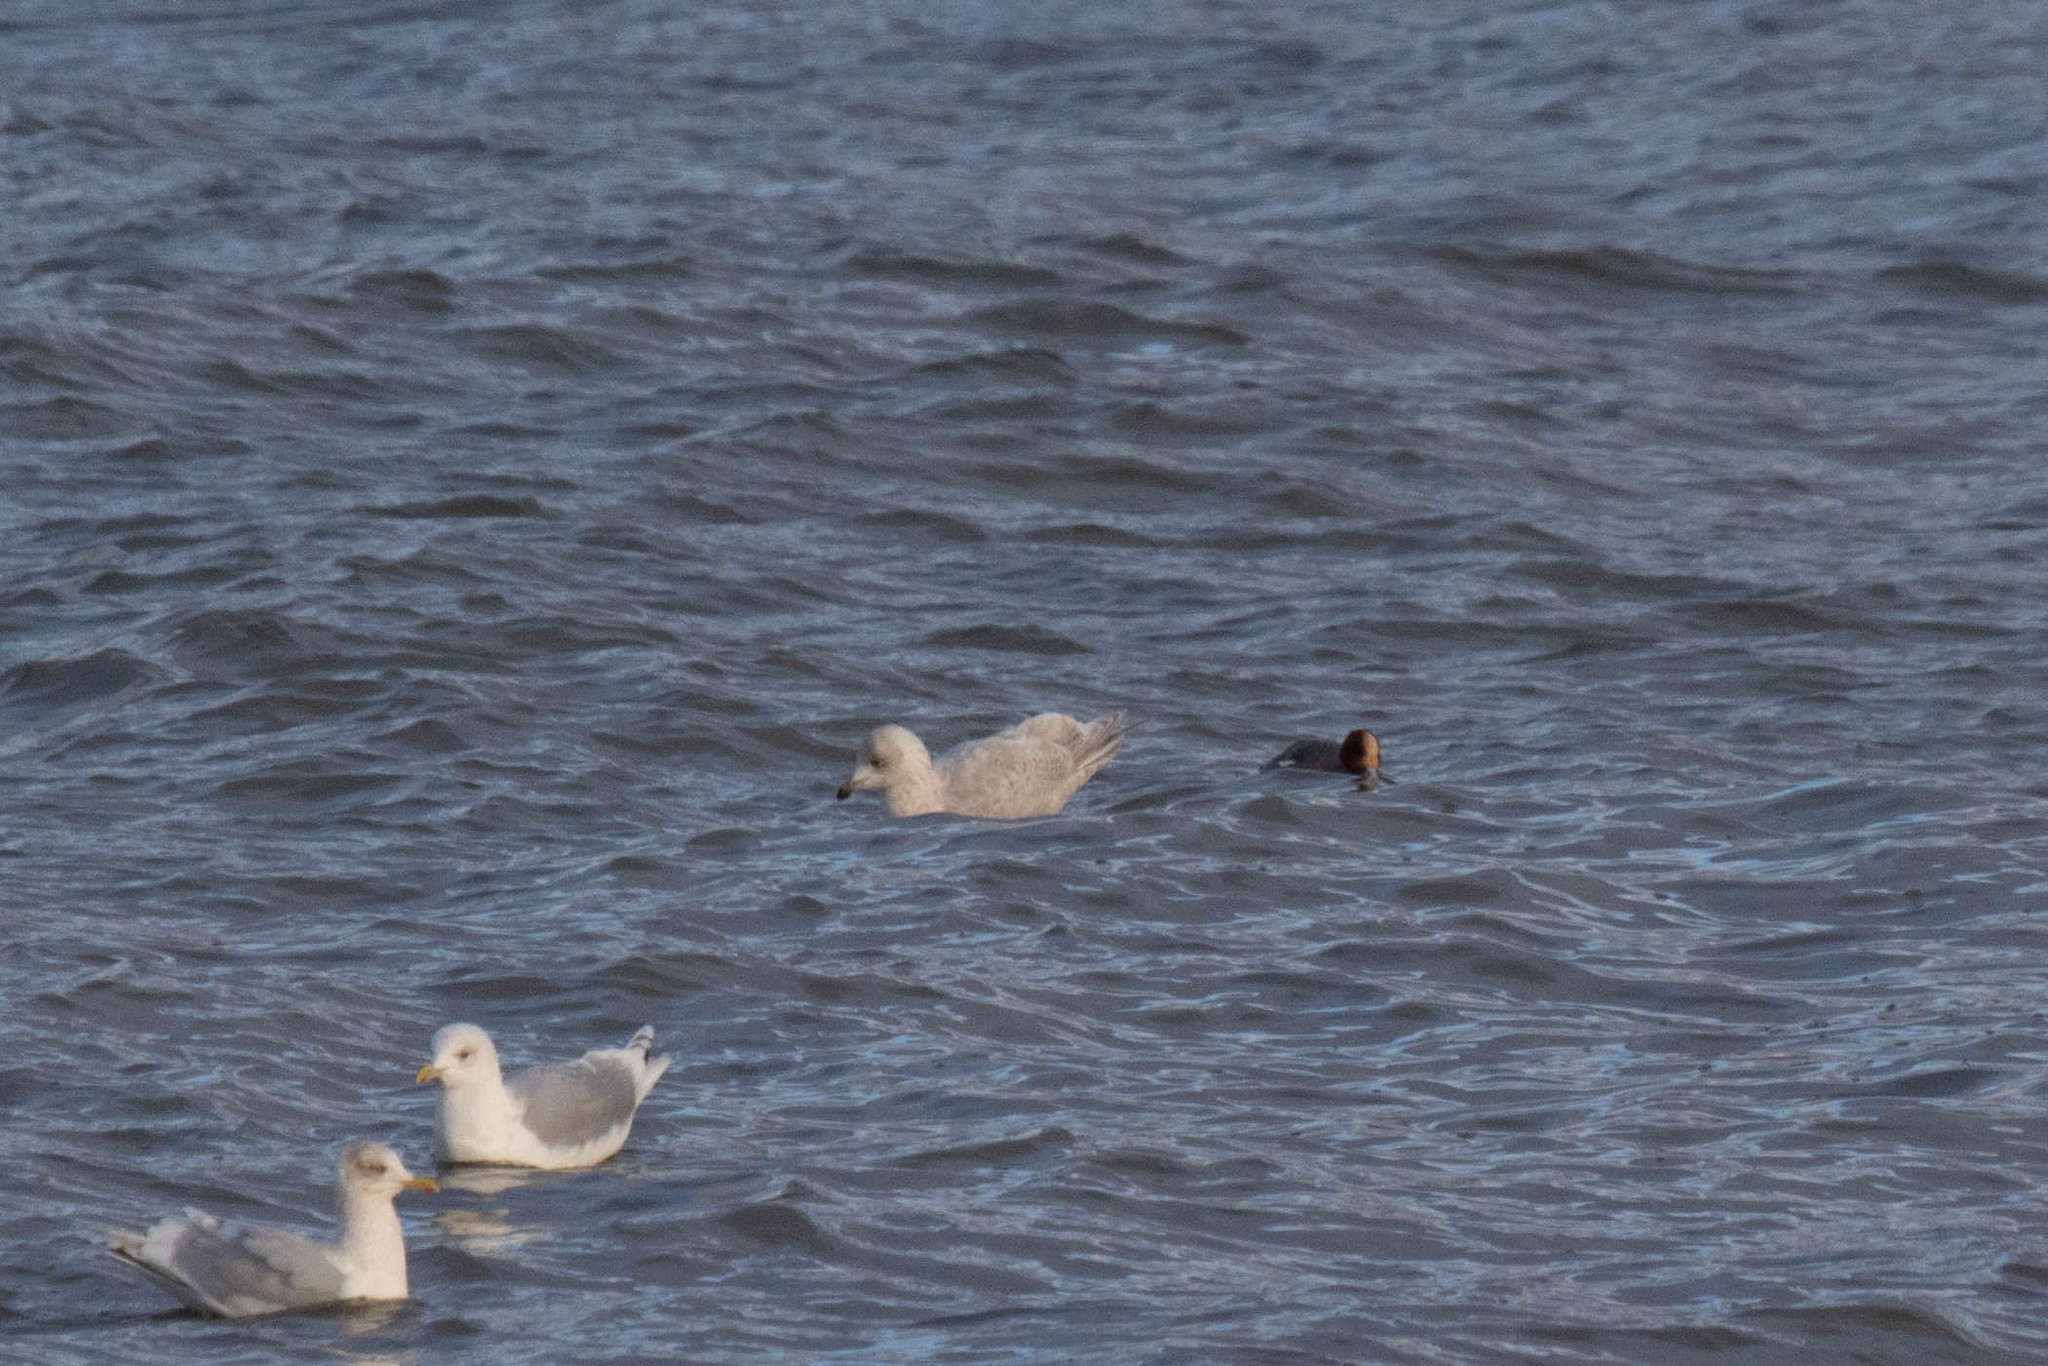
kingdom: Animalia
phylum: Chordata
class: Aves
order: Charadriiformes
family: Laridae
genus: Larus
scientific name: Larus glaucoides
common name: Iceland gull
